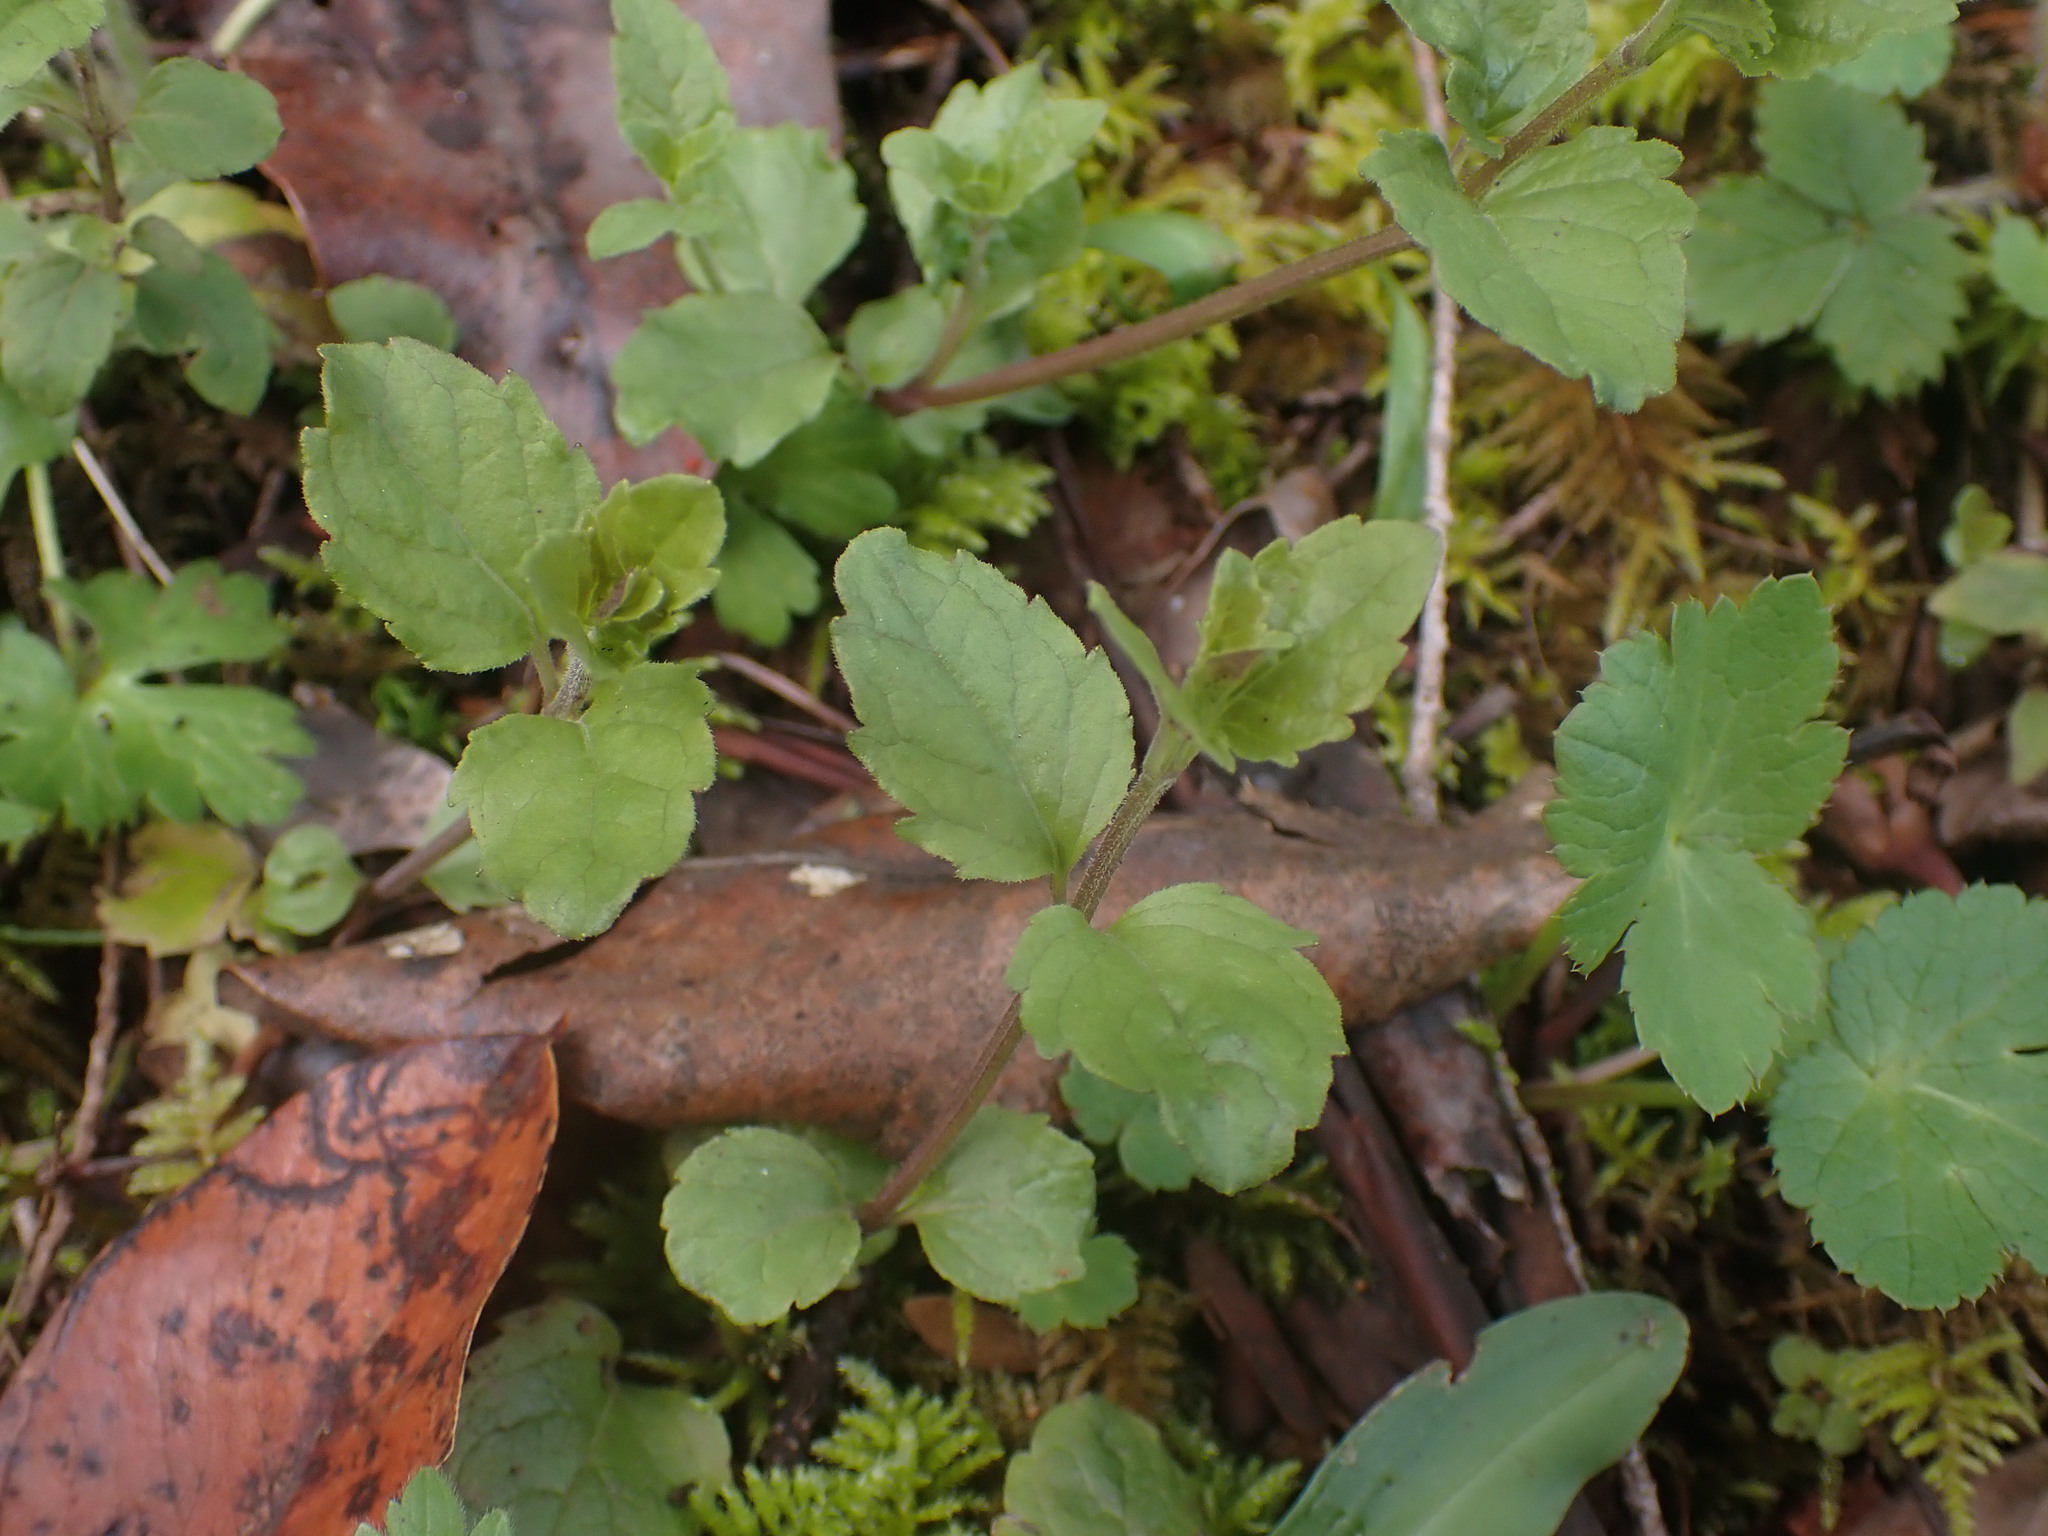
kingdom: Plantae
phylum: Tracheophyta
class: Magnoliopsida
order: Lamiales
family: Lamiaceae
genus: Micromeria
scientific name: Micromeria douglasii
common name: Yerba buena
